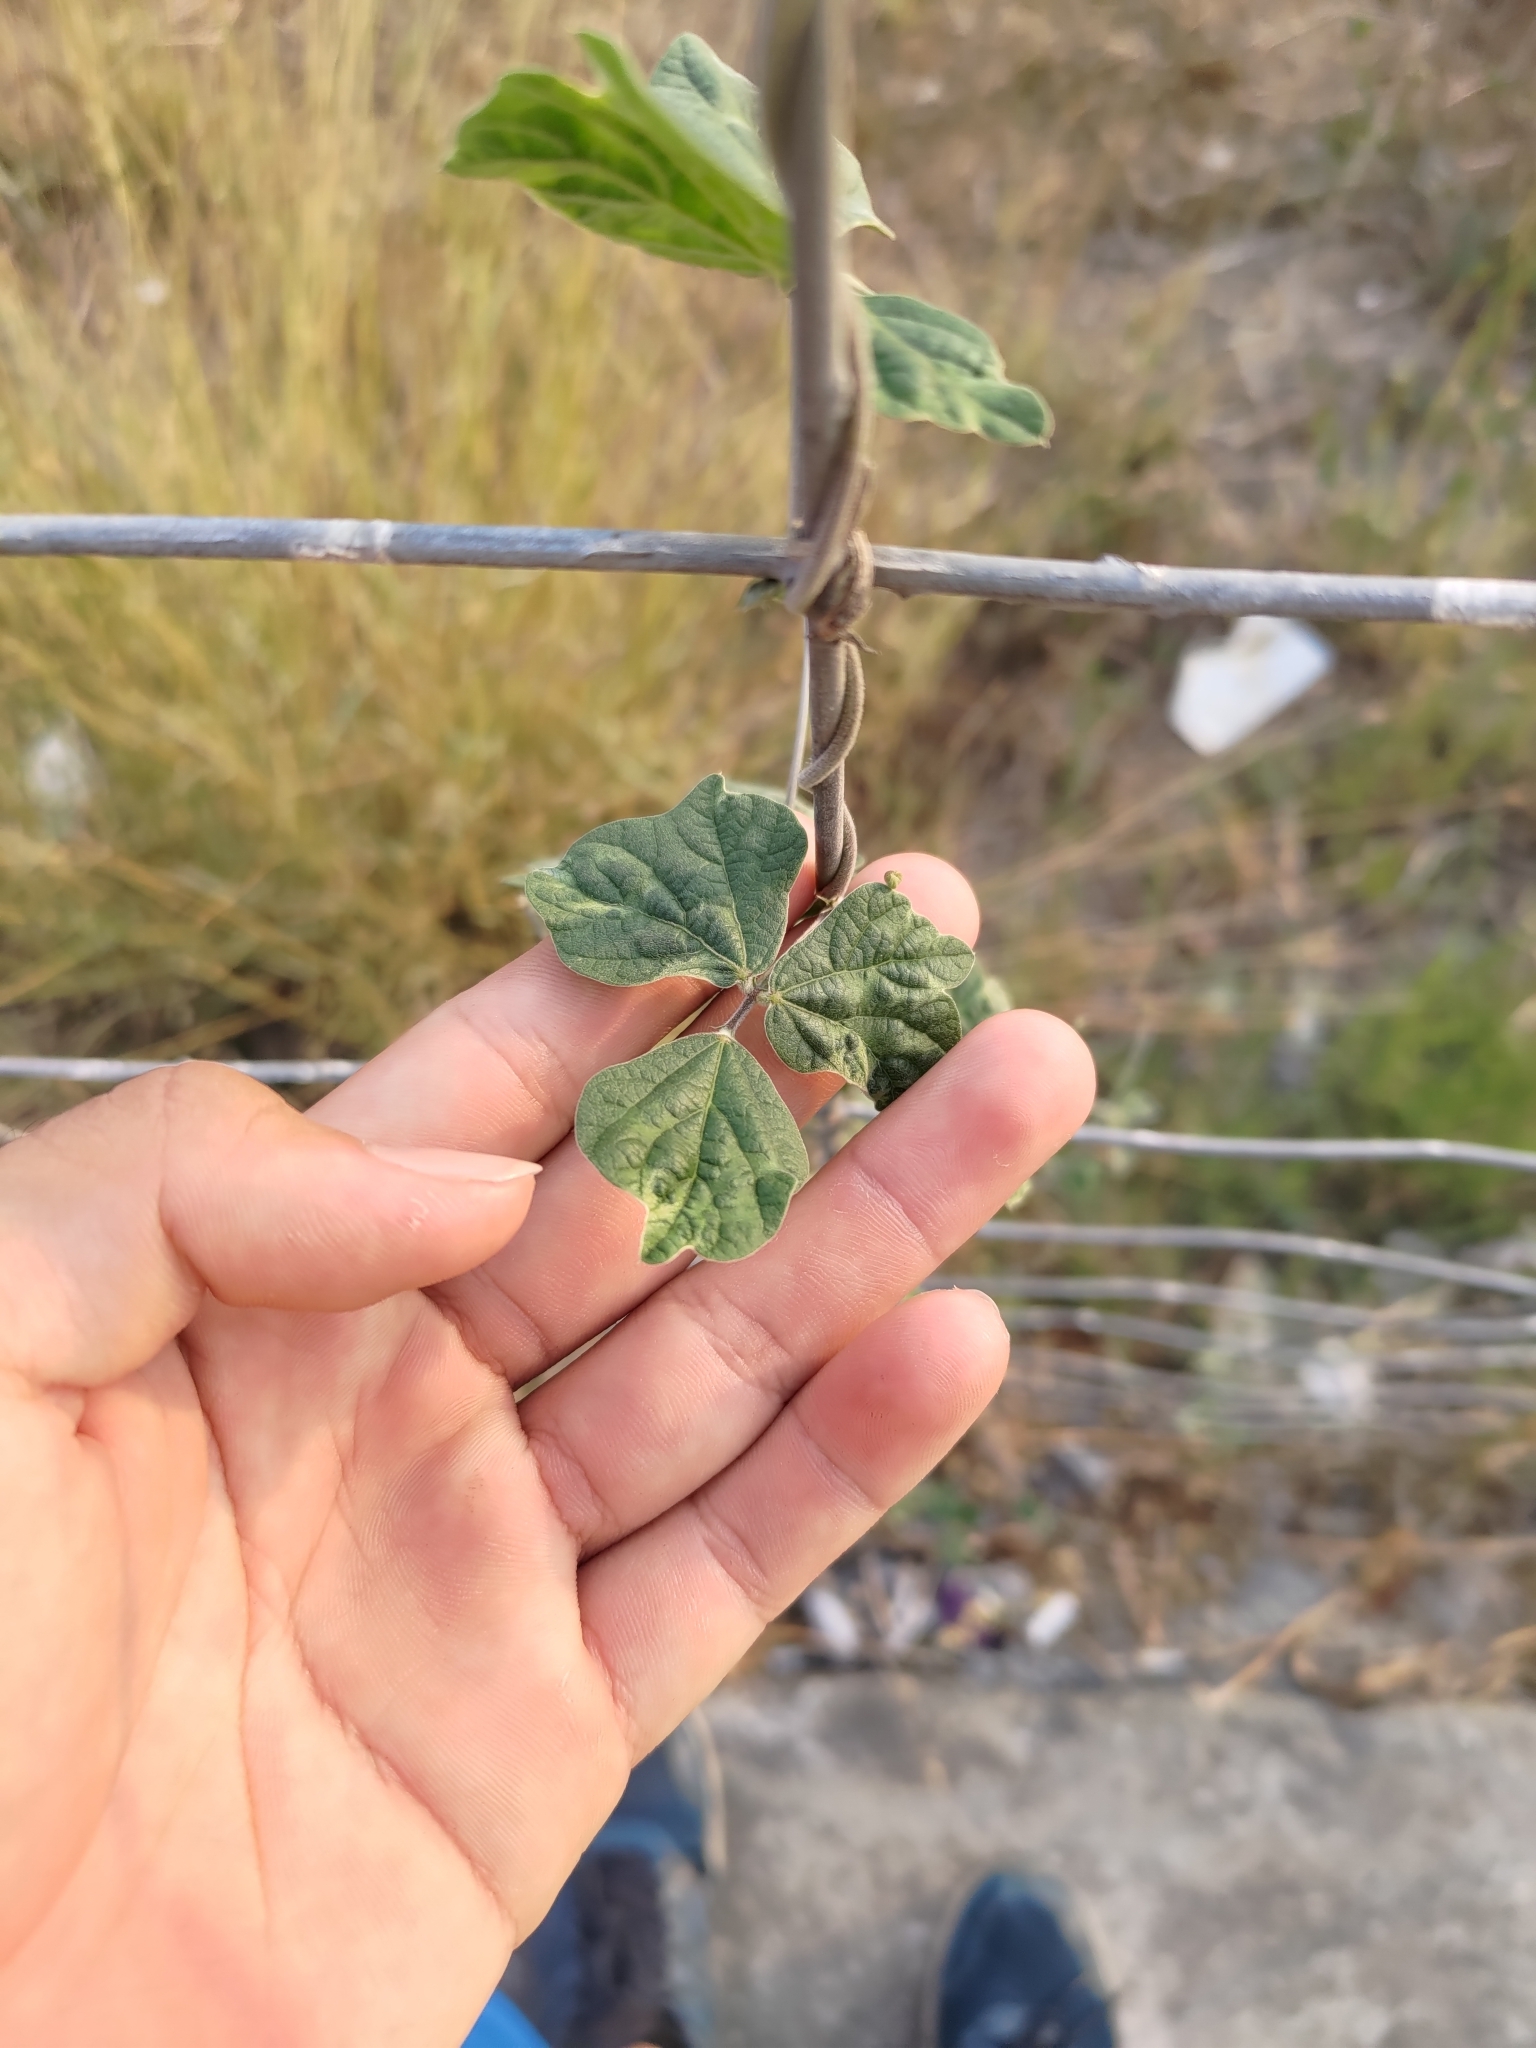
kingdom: Plantae
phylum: Tracheophyta
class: Magnoliopsida
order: Fabales
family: Fabaceae
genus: Macroptilium
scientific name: Macroptilium atropurpureum
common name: Purple bushbean
